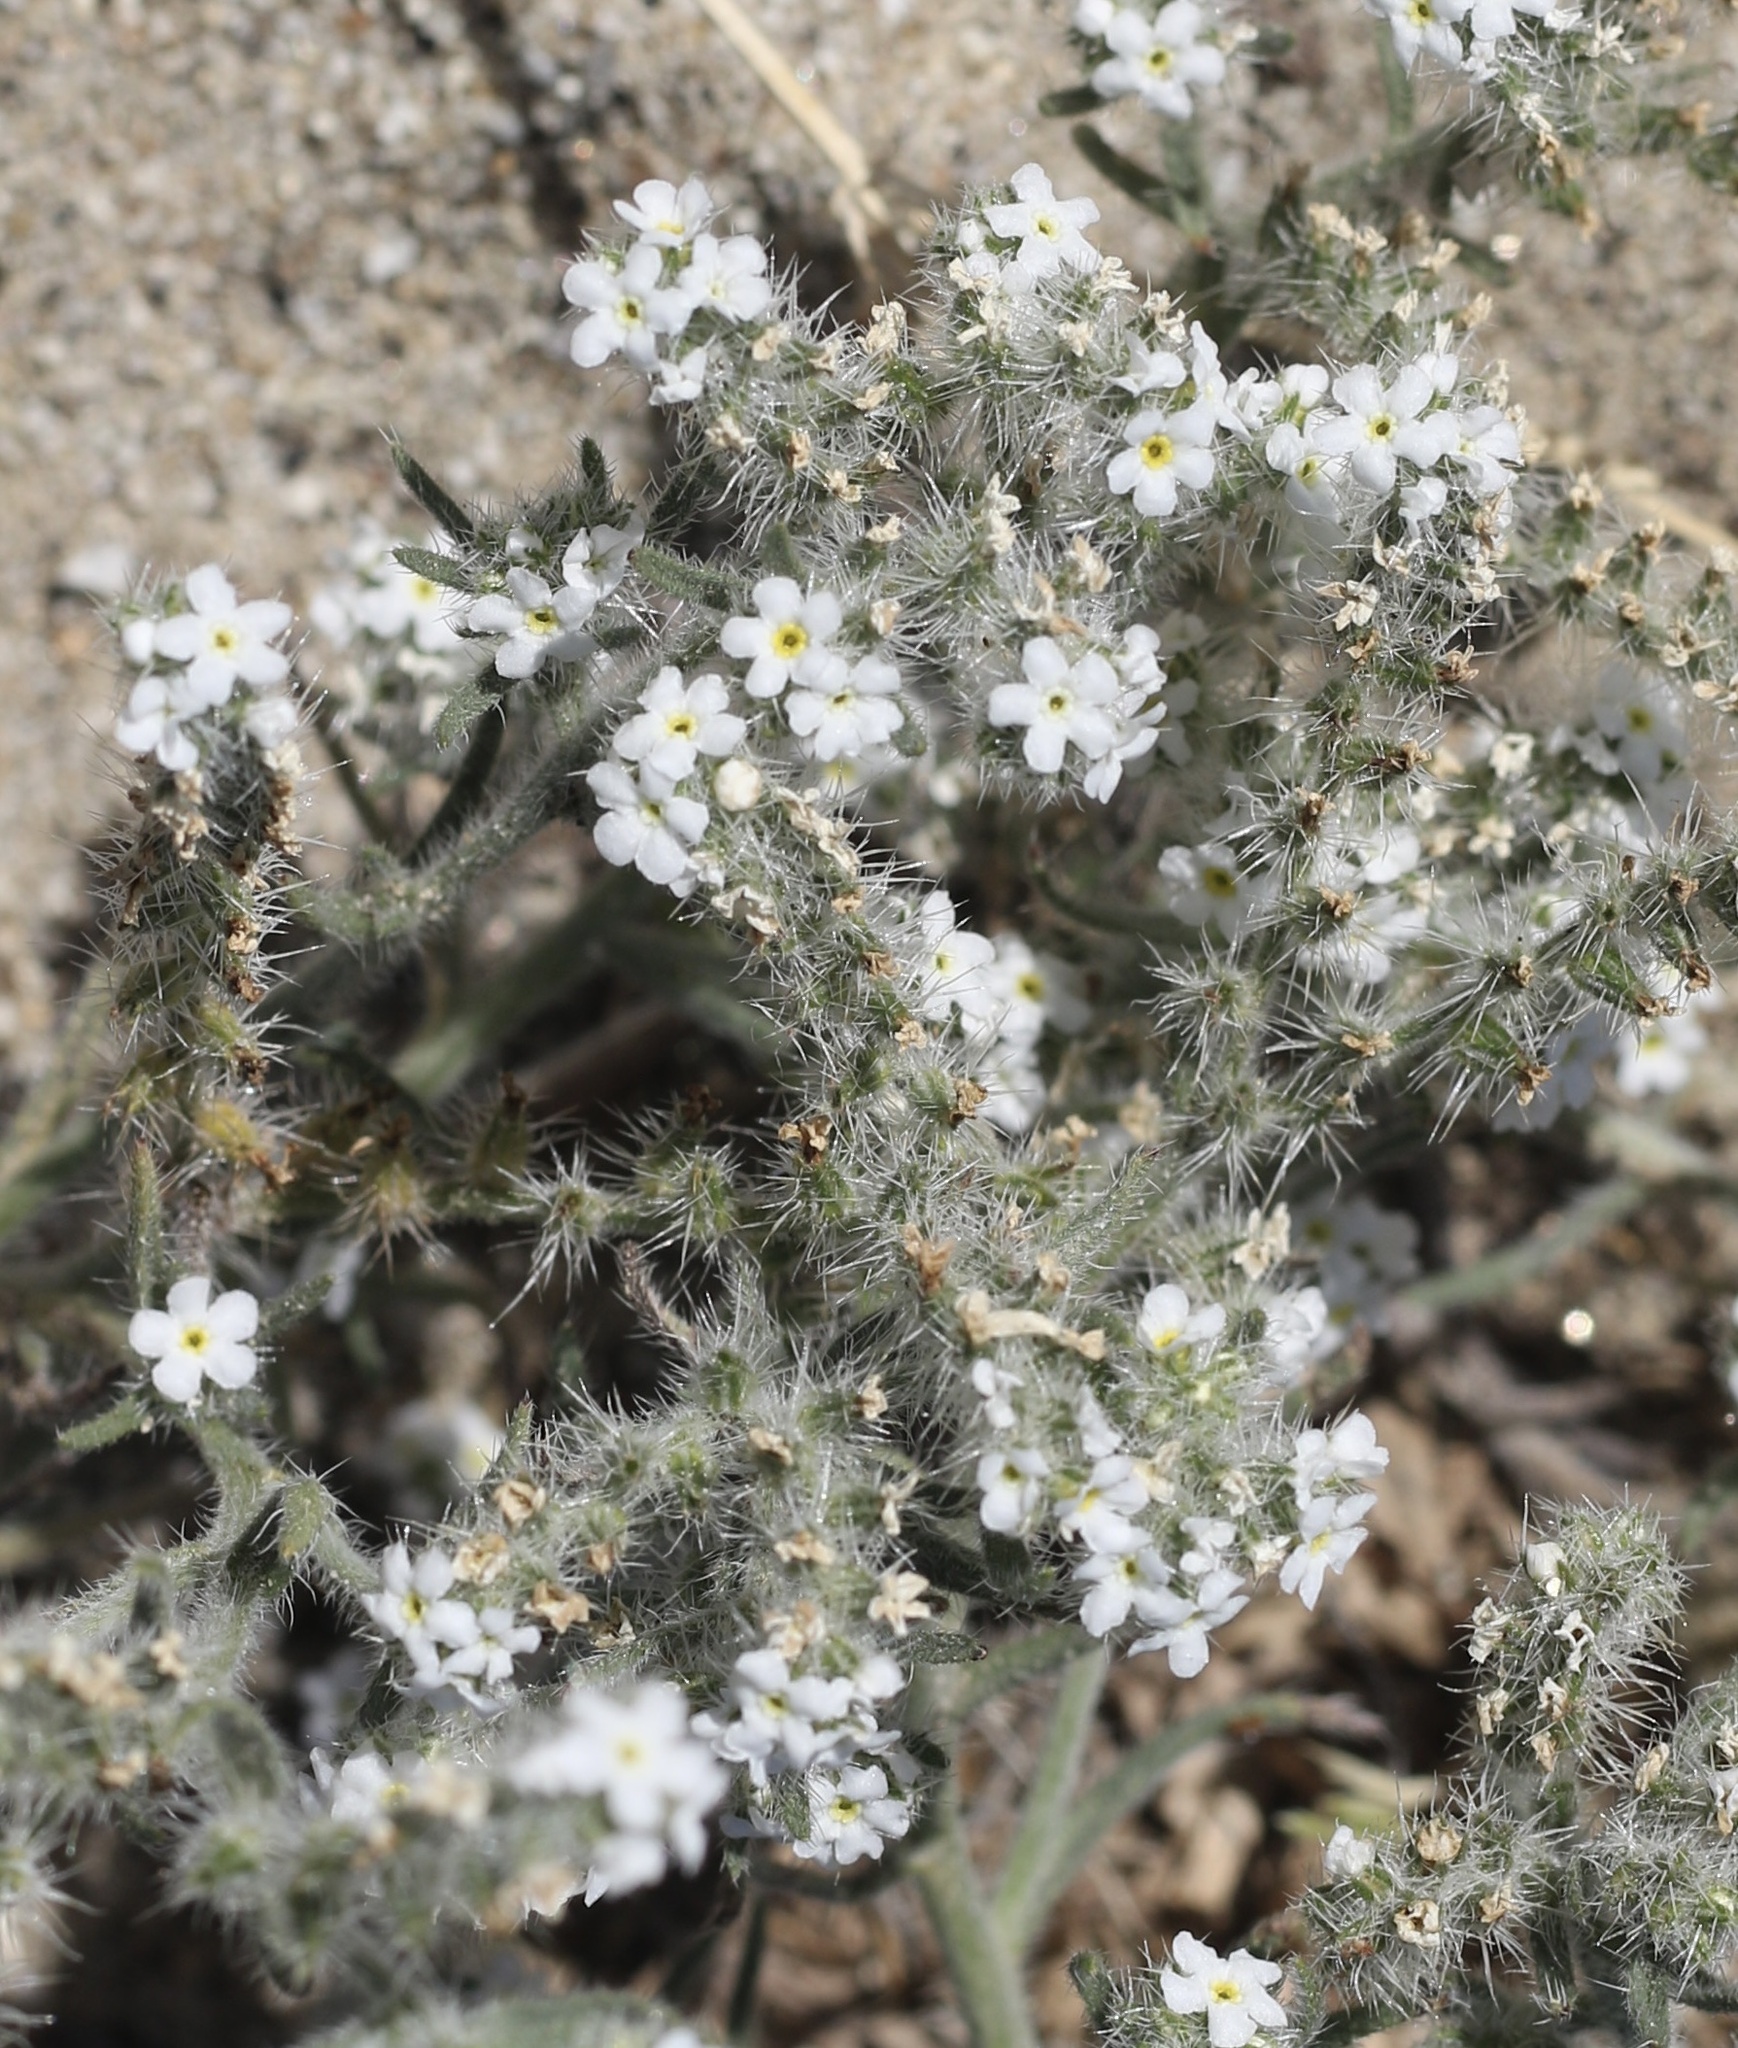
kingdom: Plantae
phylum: Tracheophyta
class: Magnoliopsida
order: Boraginales
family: Boraginaceae
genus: Johnstonella
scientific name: Johnstonella angustifolia
